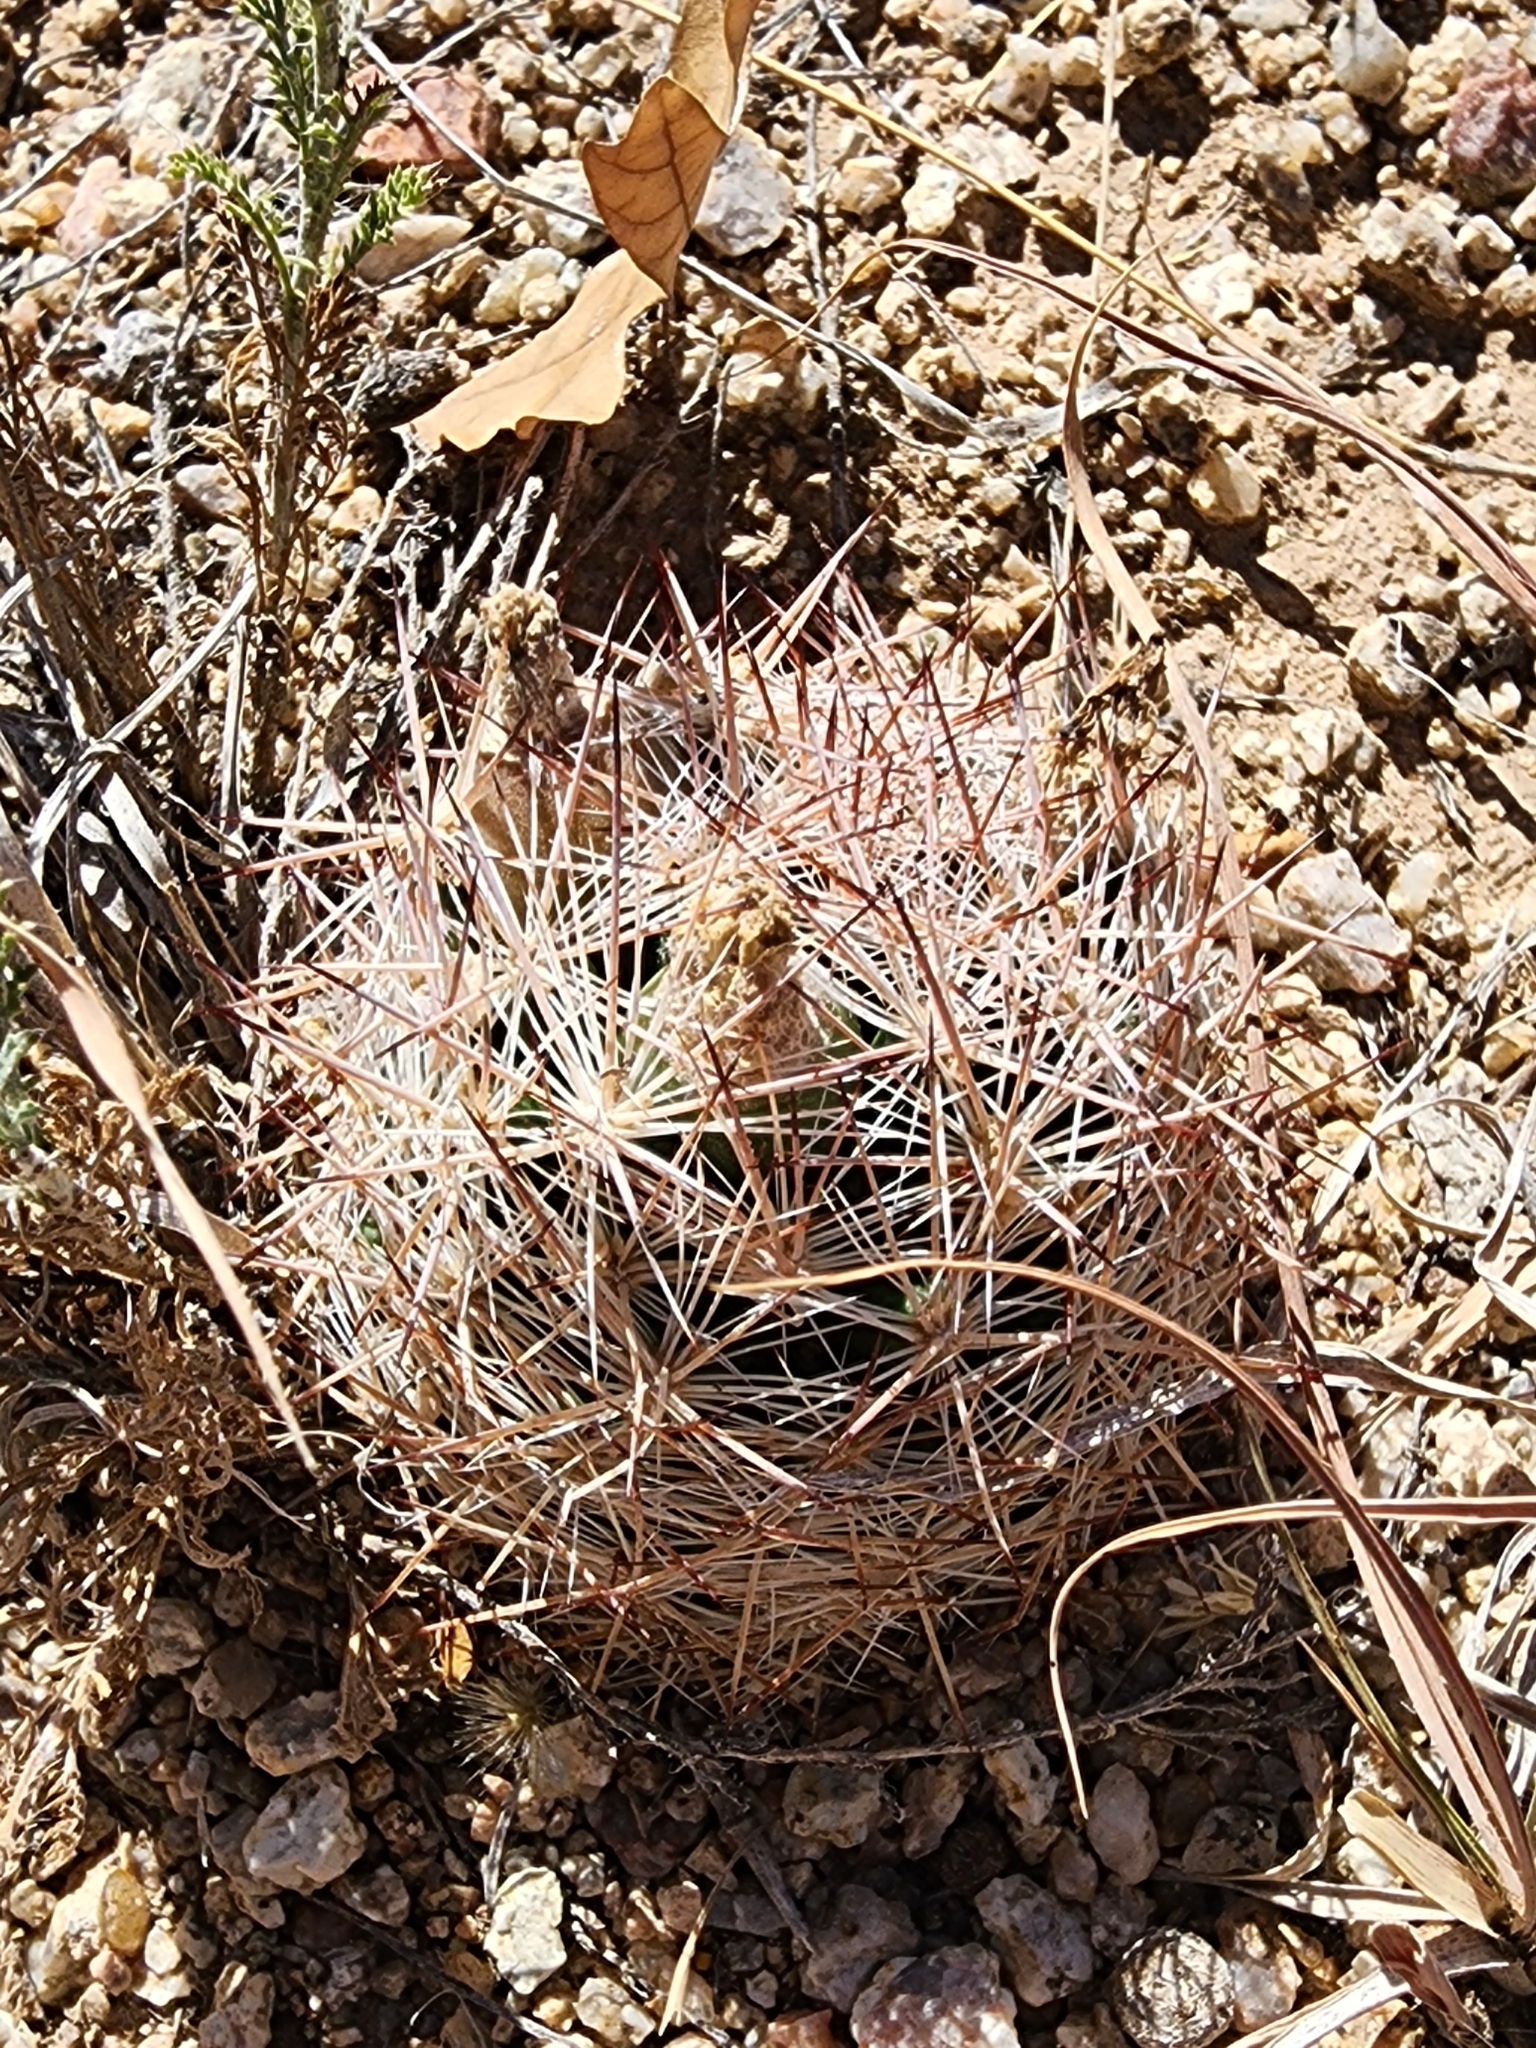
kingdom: Plantae
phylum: Tracheophyta
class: Magnoliopsida
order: Caryophyllales
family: Cactaceae
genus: Pelecyphora
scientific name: Pelecyphora vivipara
